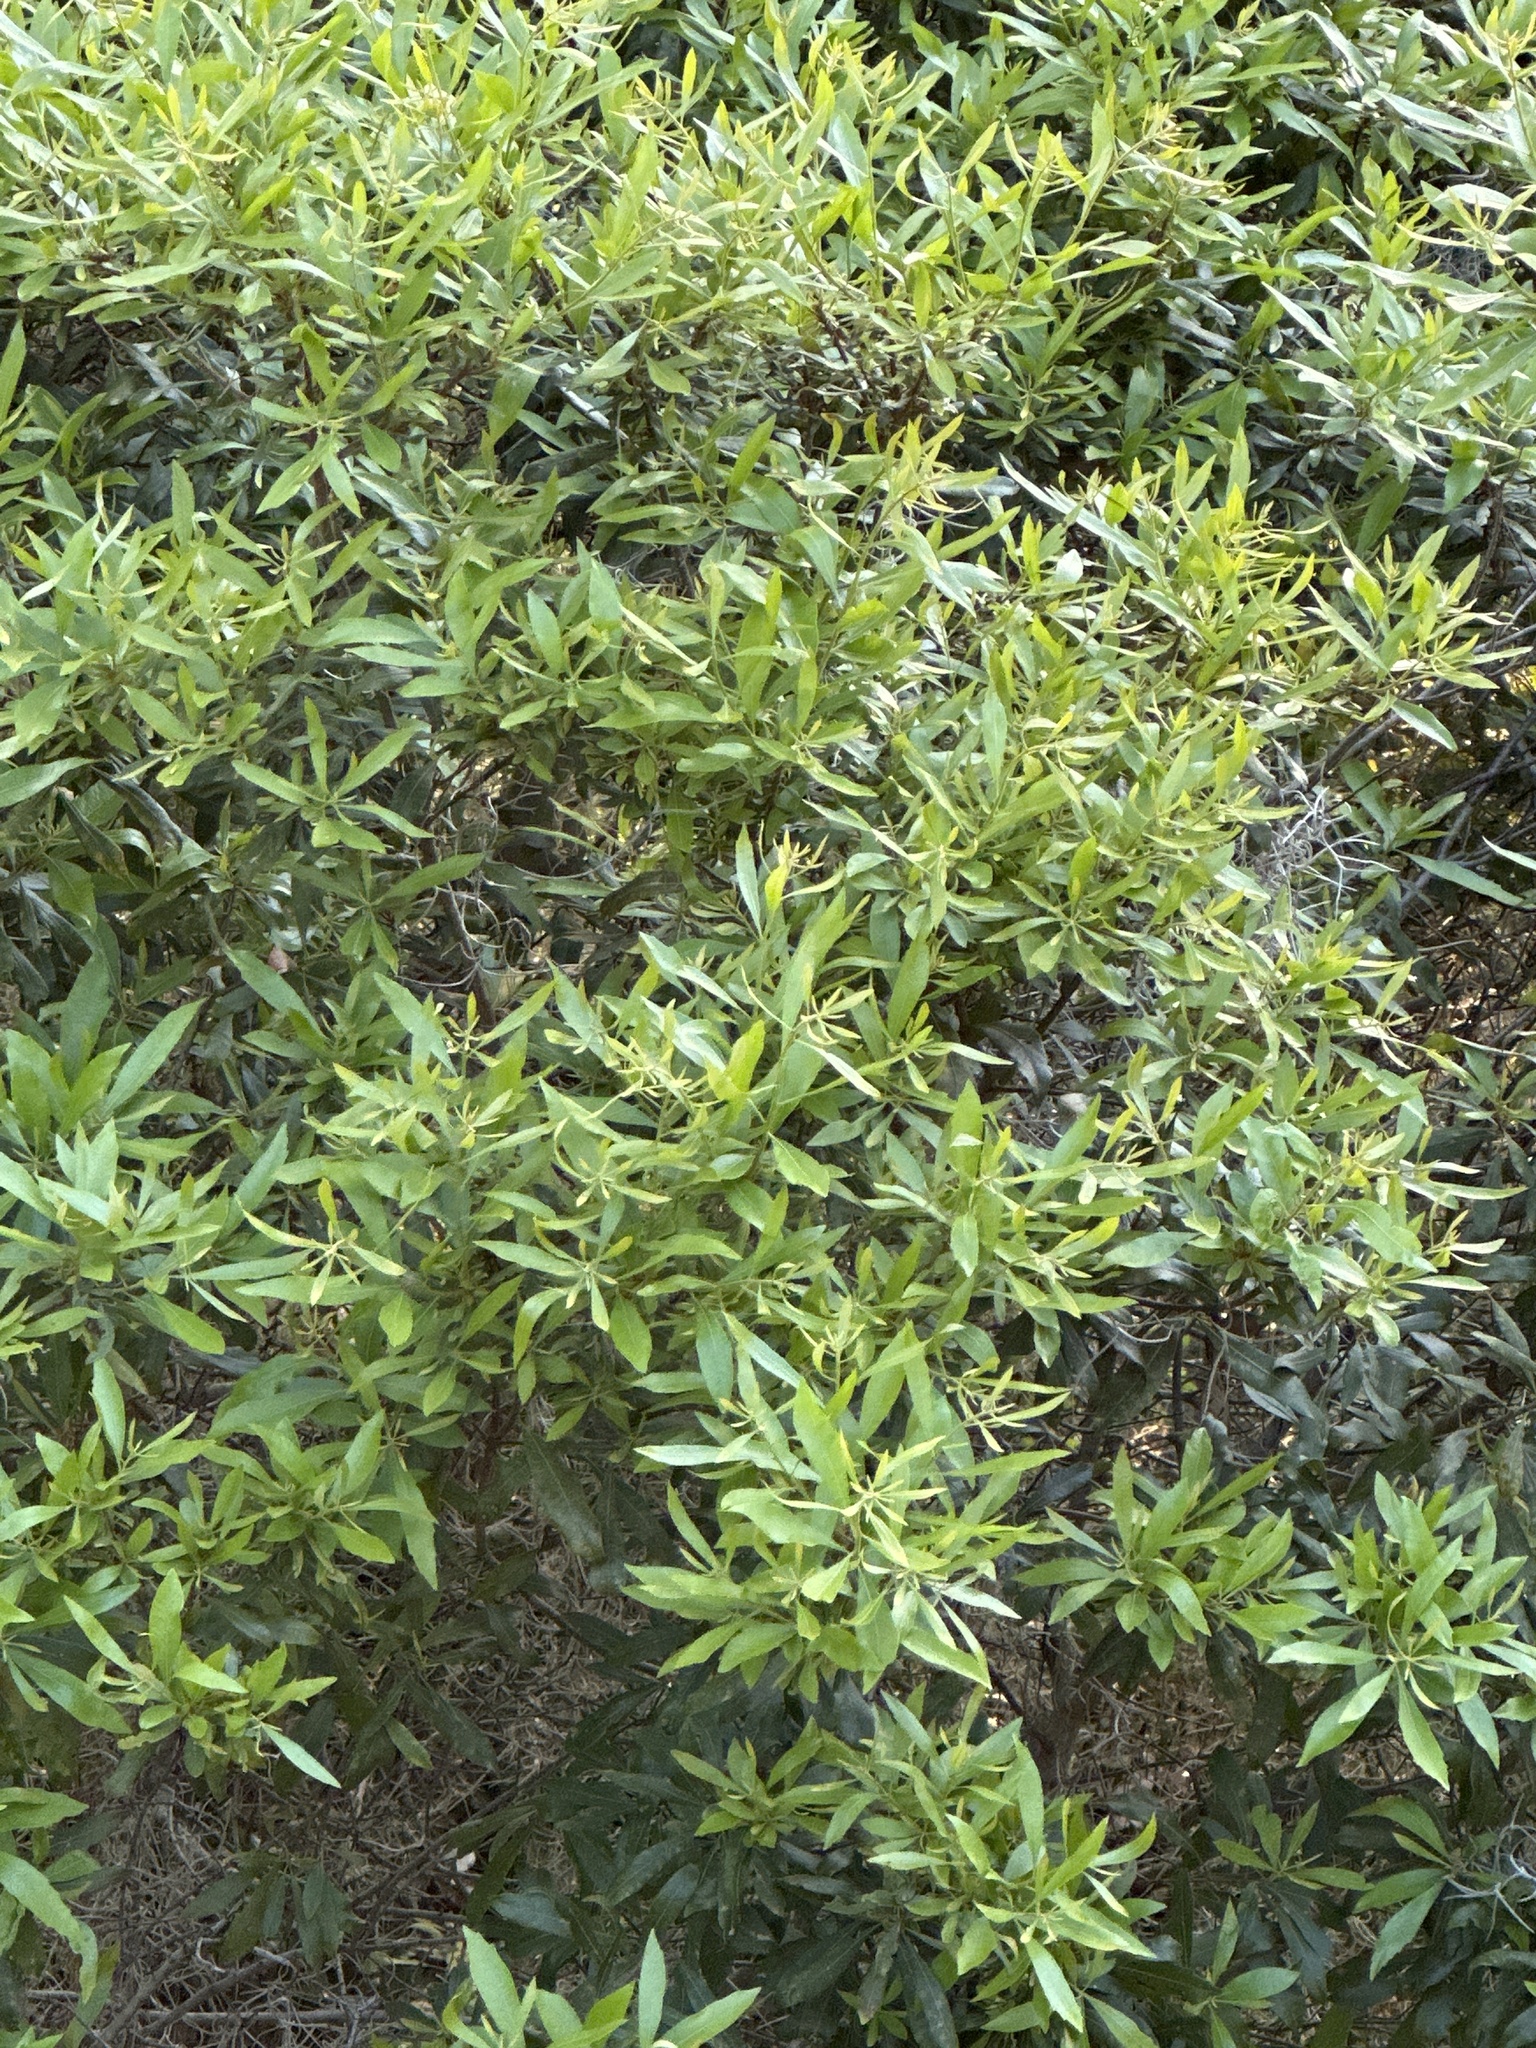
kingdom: Plantae
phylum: Tracheophyta
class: Magnoliopsida
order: Fagales
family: Myricaceae
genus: Morella
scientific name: Morella cerifera
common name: Wax myrtle
